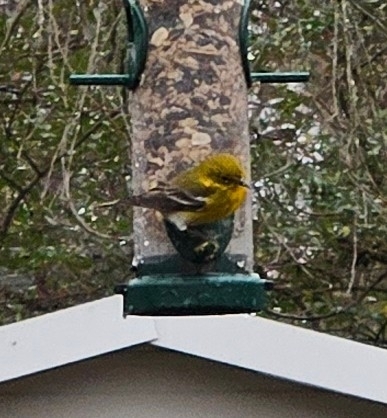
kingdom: Animalia
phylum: Chordata
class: Aves
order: Passeriformes
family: Parulidae
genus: Setophaga
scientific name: Setophaga pinus
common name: Pine warbler
